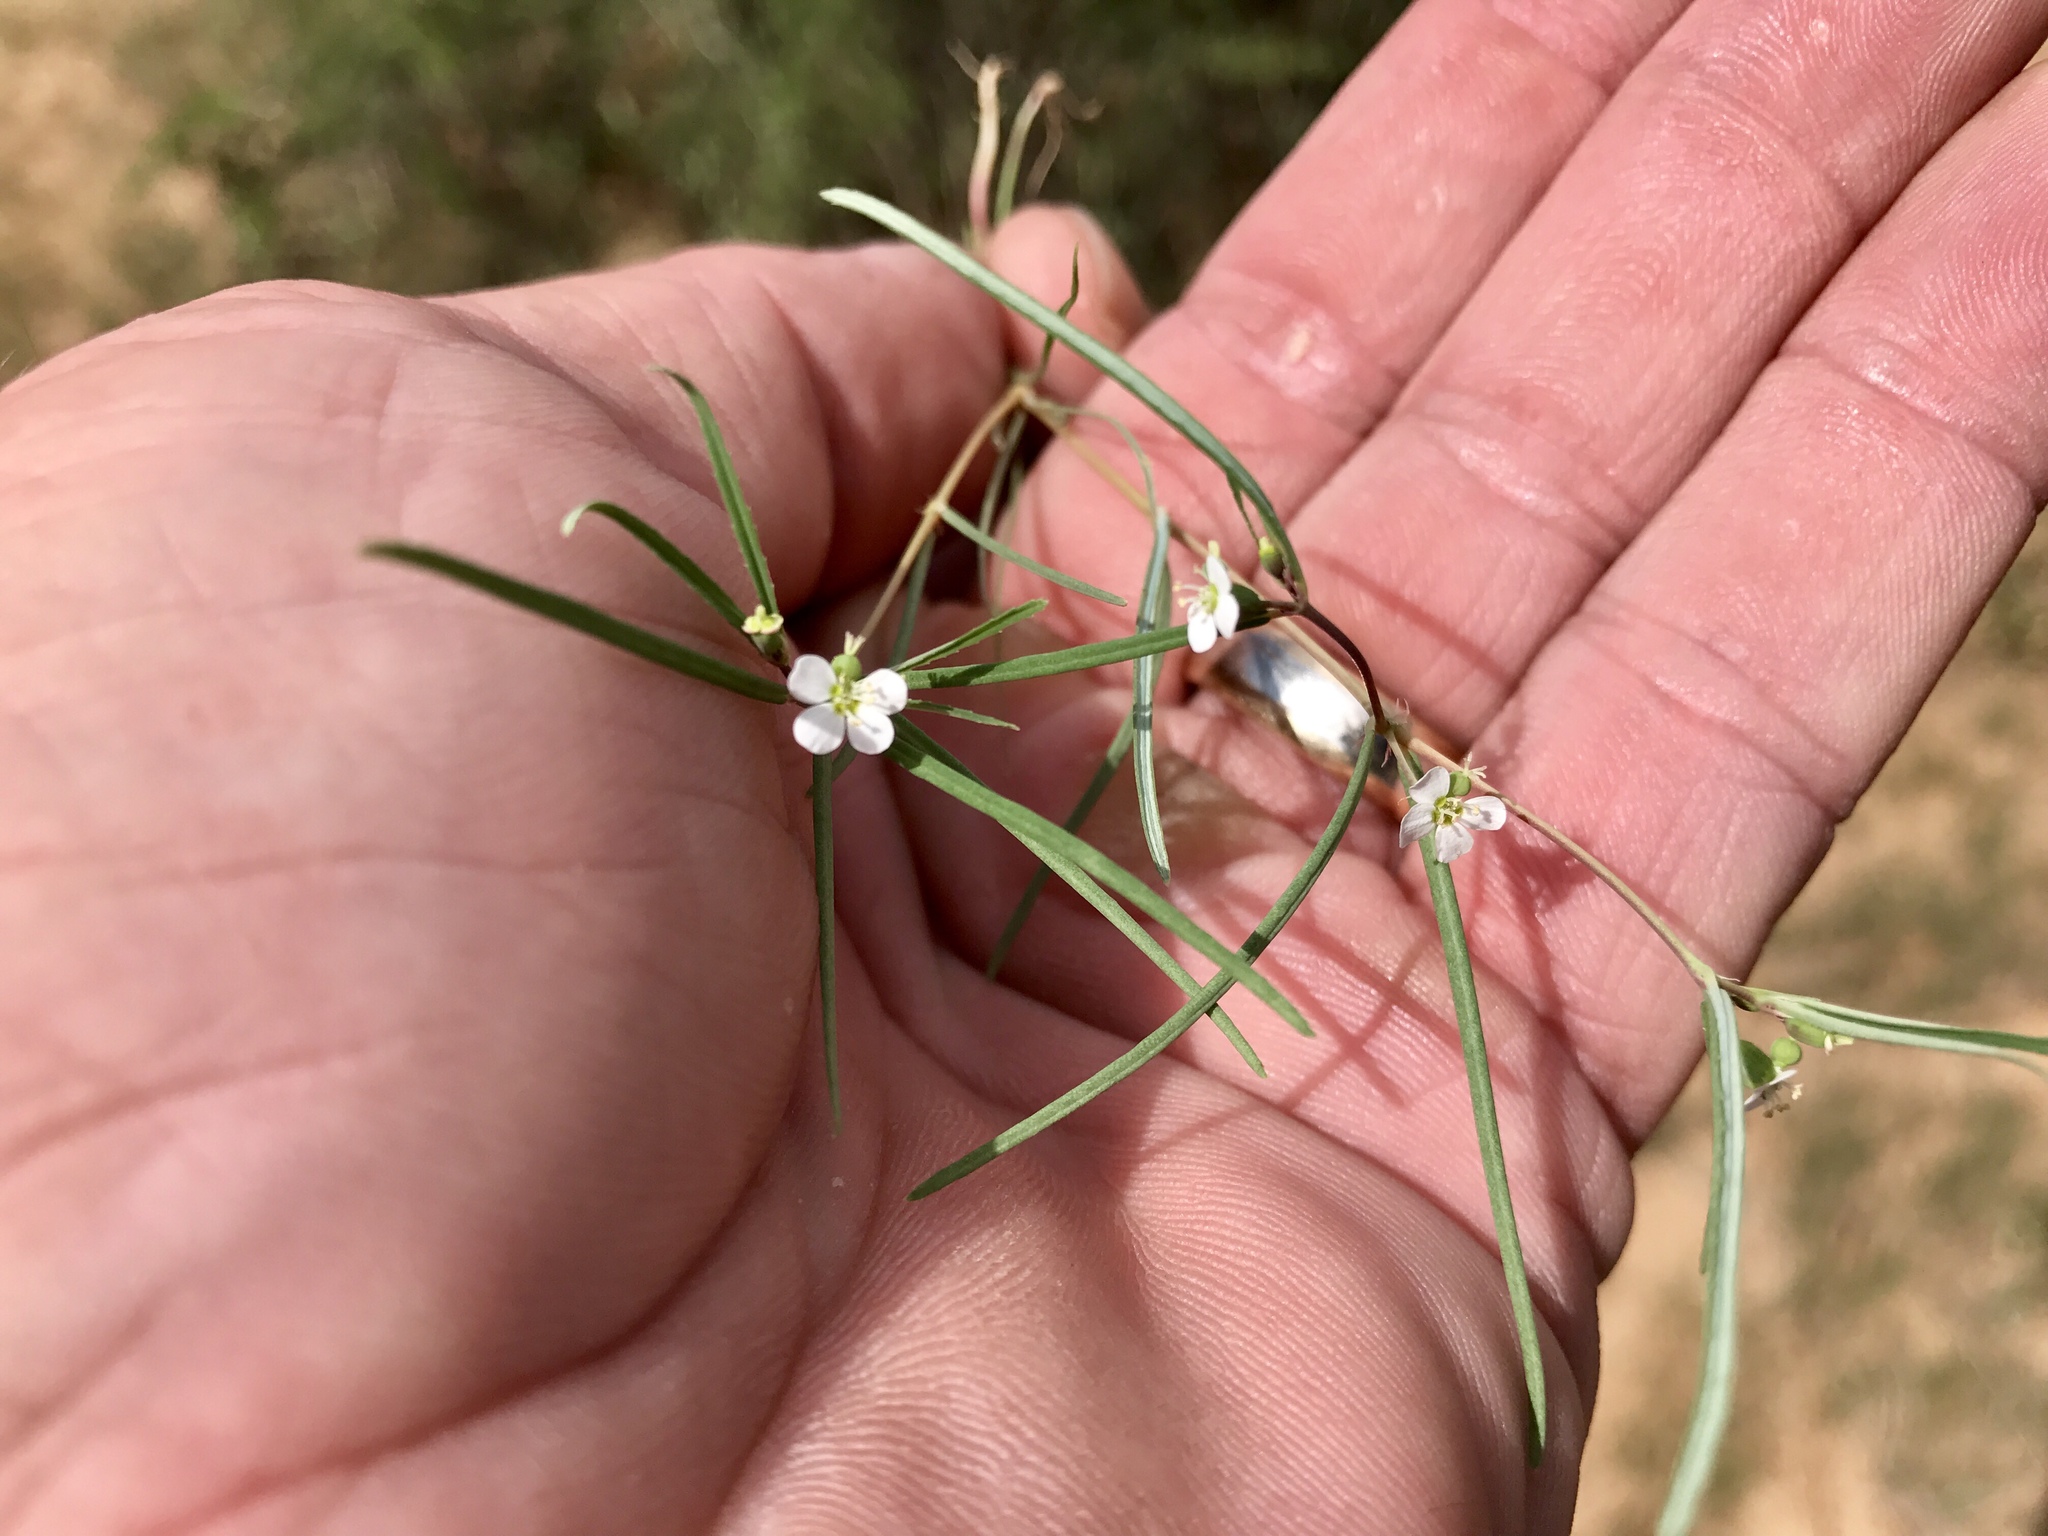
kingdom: Plantae
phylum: Tracheophyta
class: Magnoliopsida
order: Malpighiales
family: Euphorbiaceae
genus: Euphorbia
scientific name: Euphorbia florida
